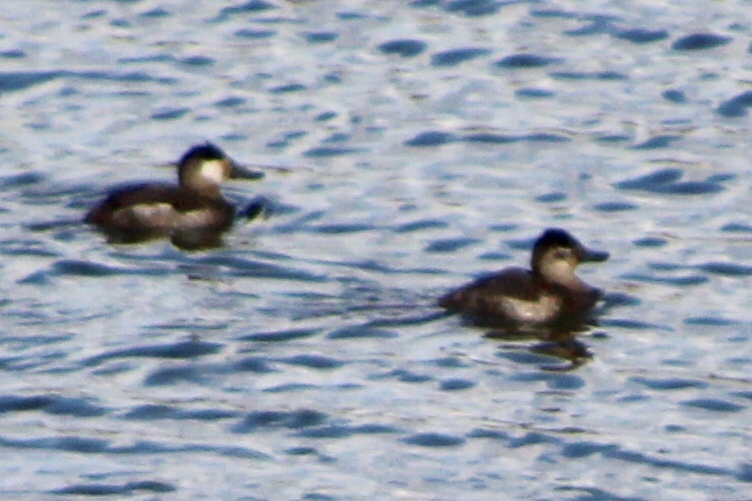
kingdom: Animalia
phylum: Chordata
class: Aves
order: Anseriformes
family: Anatidae
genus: Oxyura
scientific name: Oxyura jamaicensis
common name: Ruddy duck
